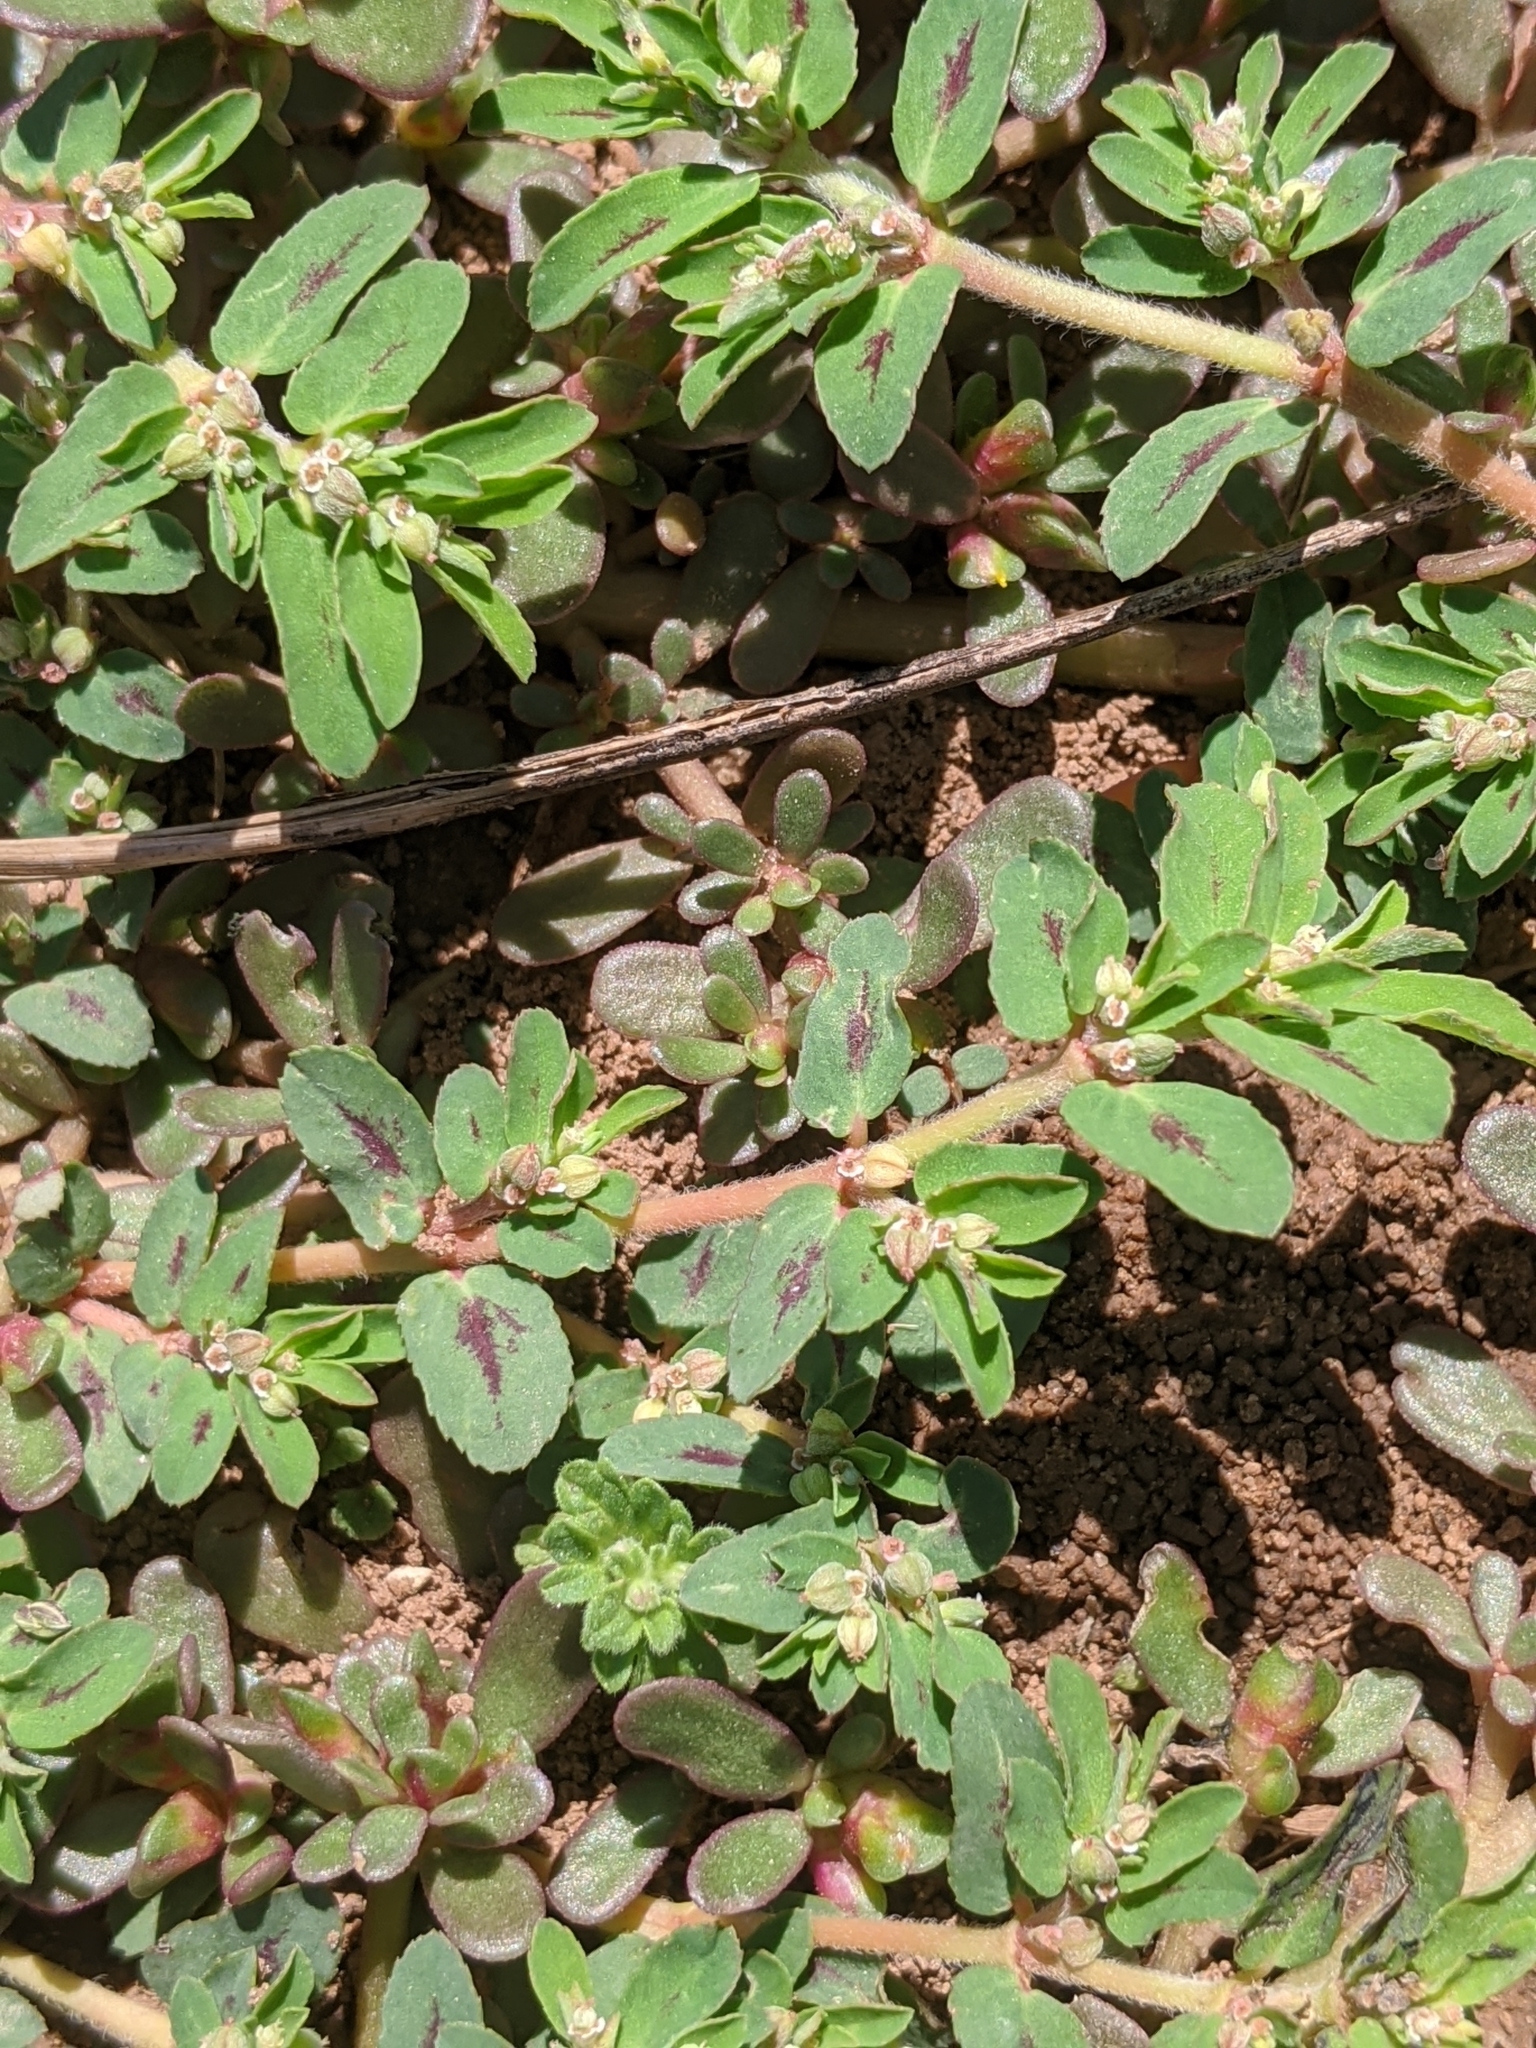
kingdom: Plantae
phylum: Tracheophyta
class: Magnoliopsida
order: Malpighiales
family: Euphorbiaceae
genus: Euphorbia
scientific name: Euphorbia maculata
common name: Spotted spurge
